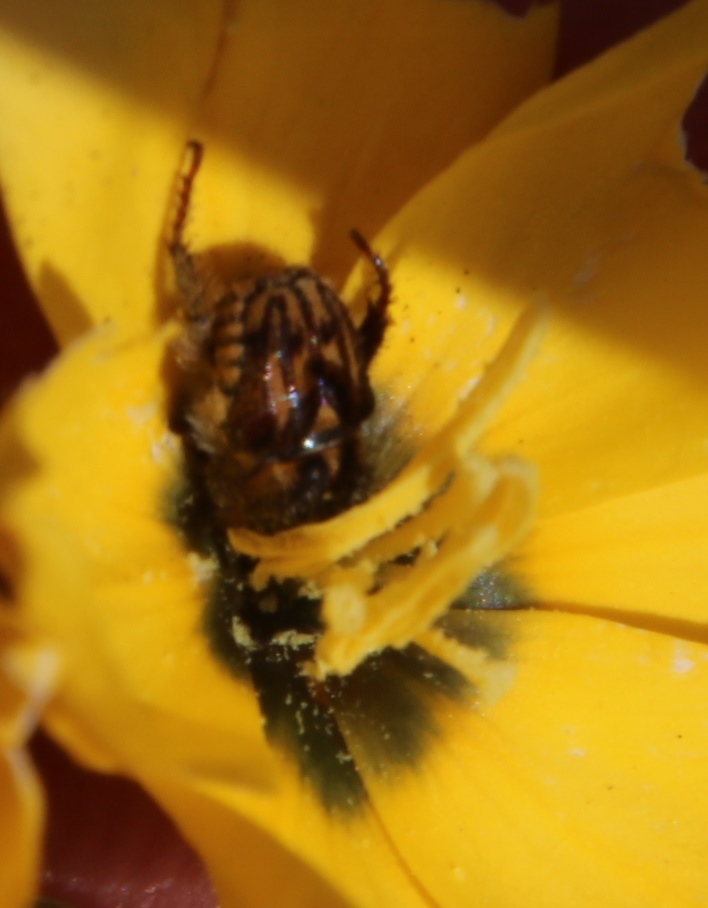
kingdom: Plantae
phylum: Tracheophyta
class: Liliopsida
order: Asparagales
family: Iridaceae
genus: Ixia
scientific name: Ixia dubia
